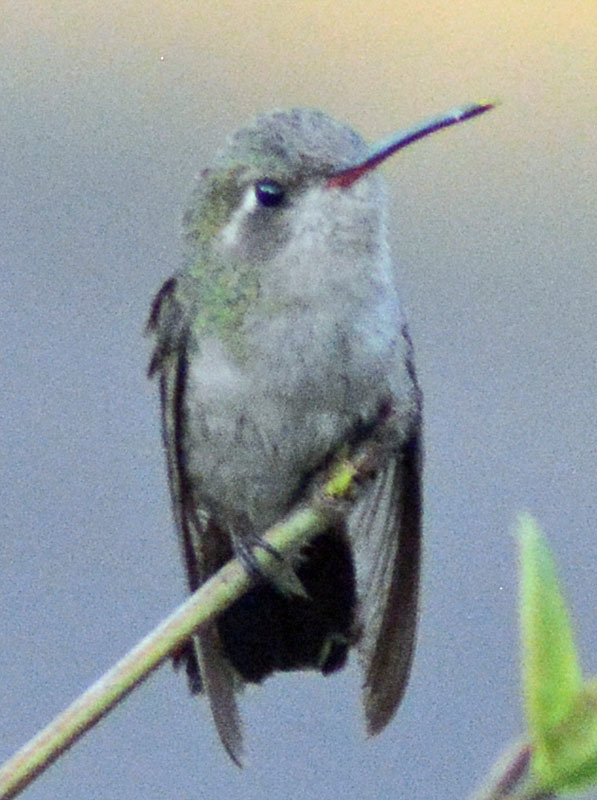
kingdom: Animalia
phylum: Chordata
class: Aves
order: Apodiformes
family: Trochilidae
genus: Cynanthus
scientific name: Cynanthus latirostris
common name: Broad-billed hummingbird
